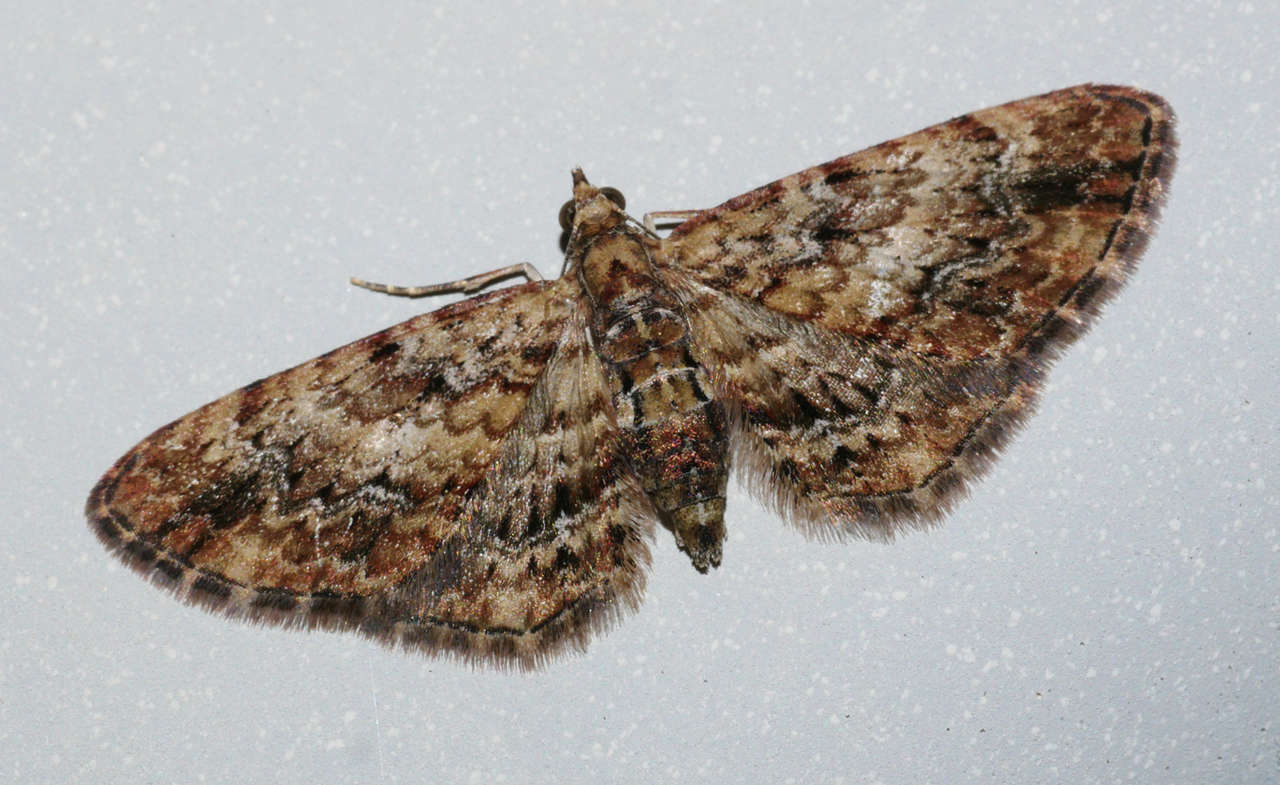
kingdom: Animalia
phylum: Arthropoda
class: Insecta
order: Lepidoptera
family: Geometridae
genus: Chloroclystis
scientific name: Chloroclystis approximata
